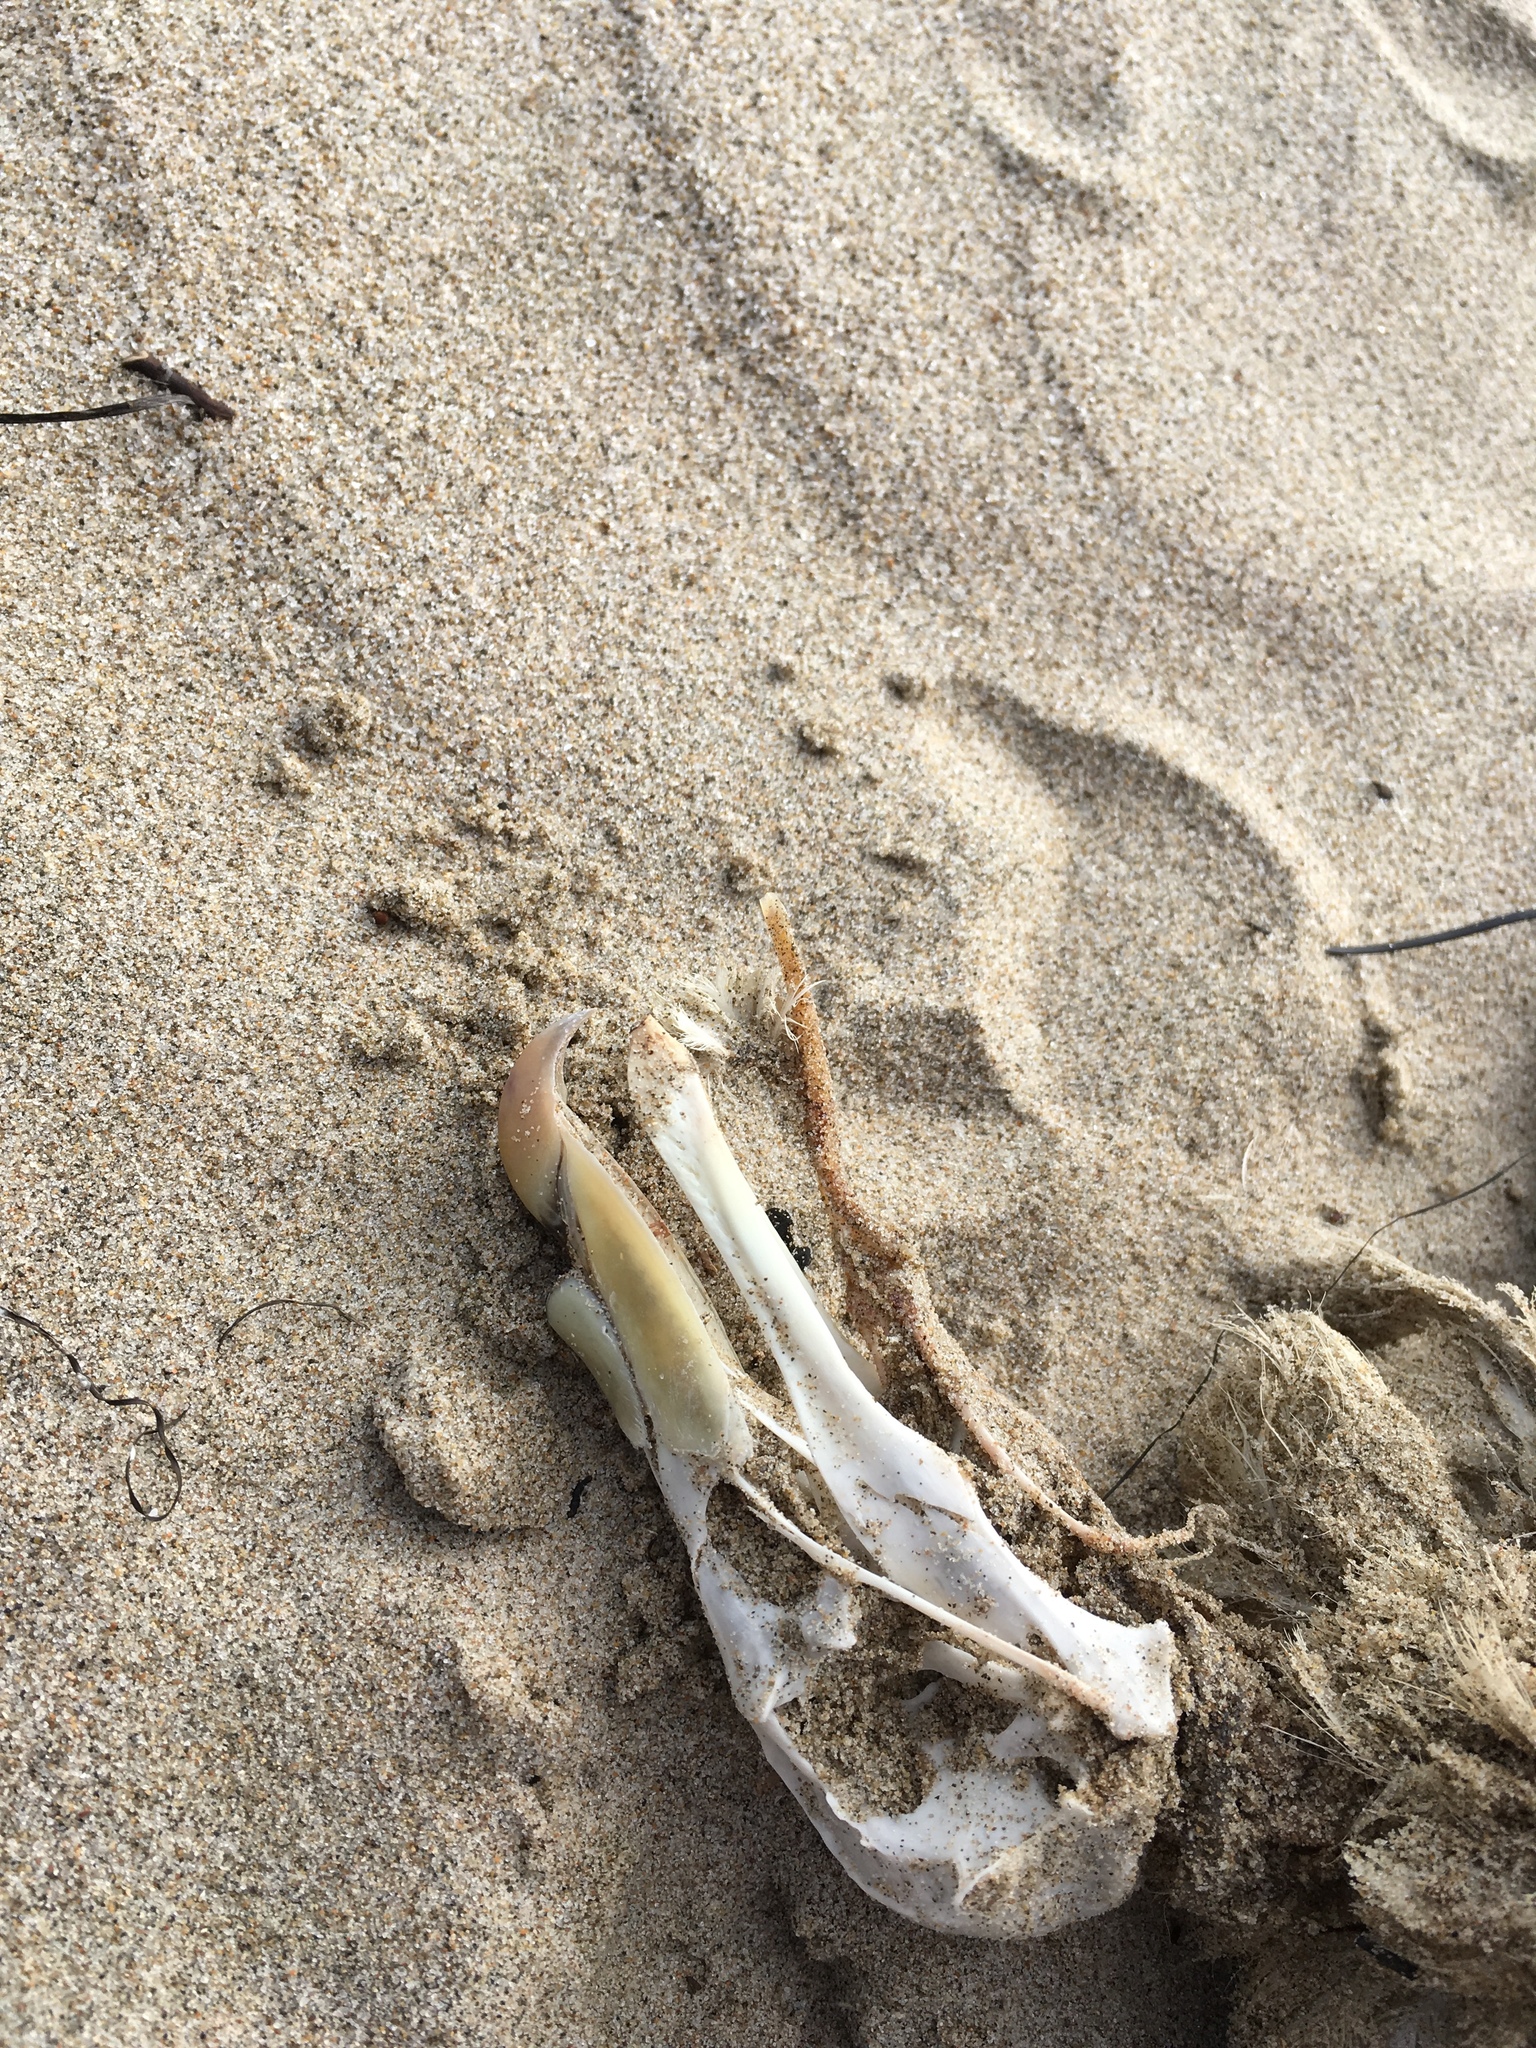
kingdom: Animalia
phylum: Chordata
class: Aves
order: Procellariiformes
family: Procellariidae
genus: Fulmarus
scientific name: Fulmarus glacialis
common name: Northern fulmar
